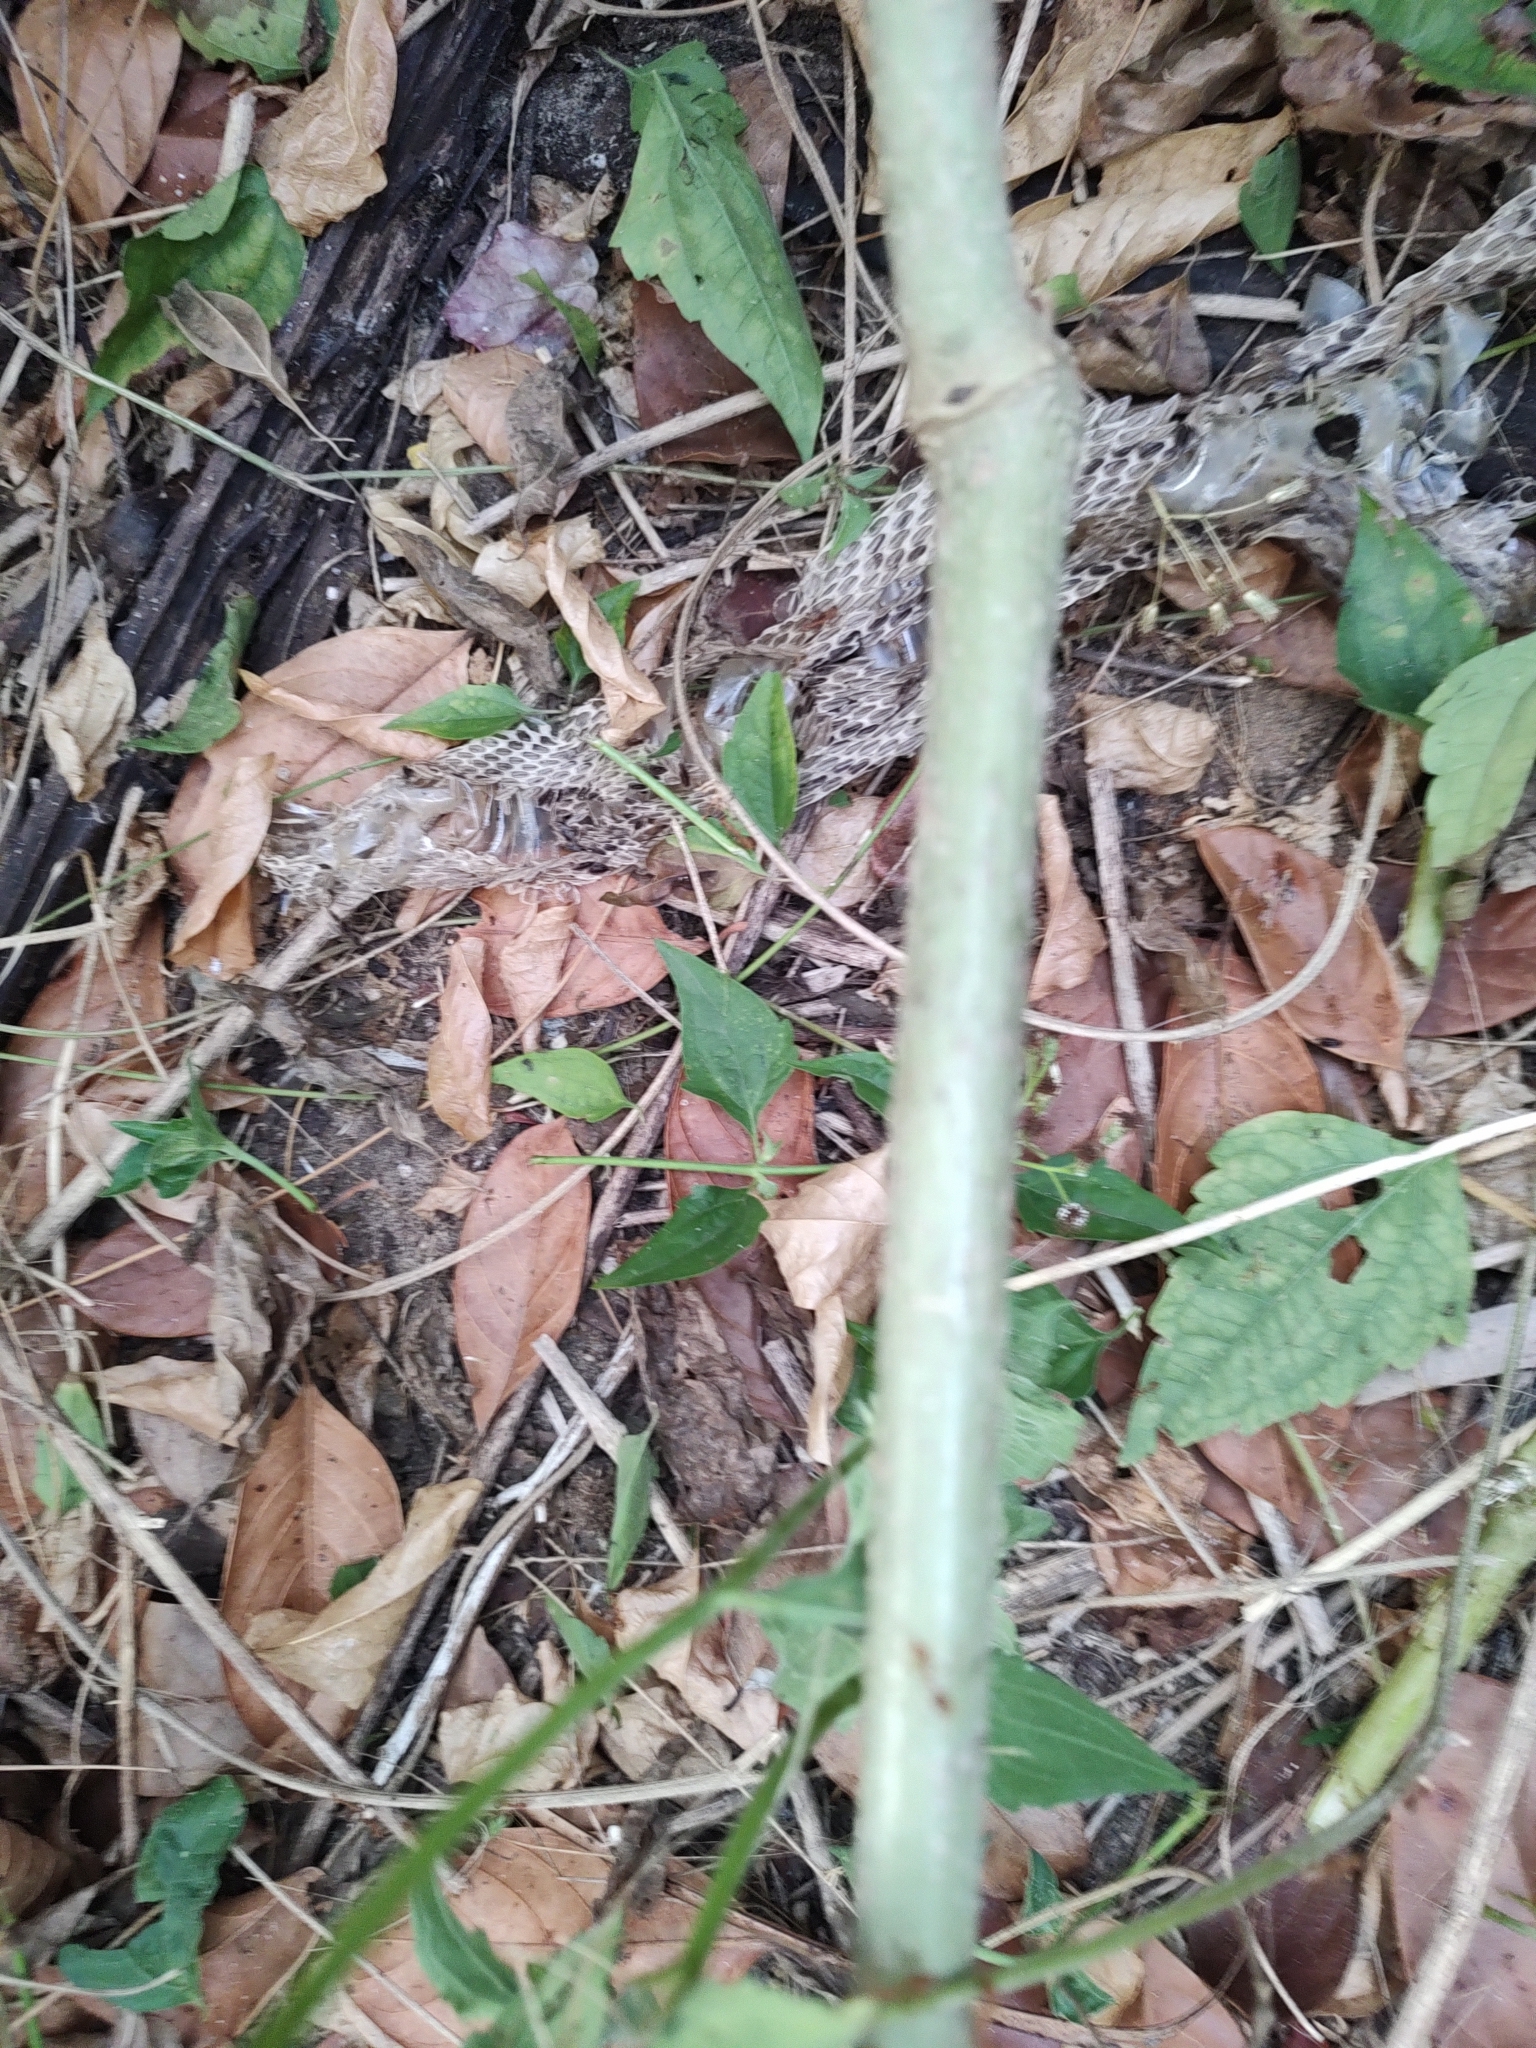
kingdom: Animalia
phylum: Chordata
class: Squamata
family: Viperidae
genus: Daboia
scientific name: Daboia russelii
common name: Western russel’s viper
